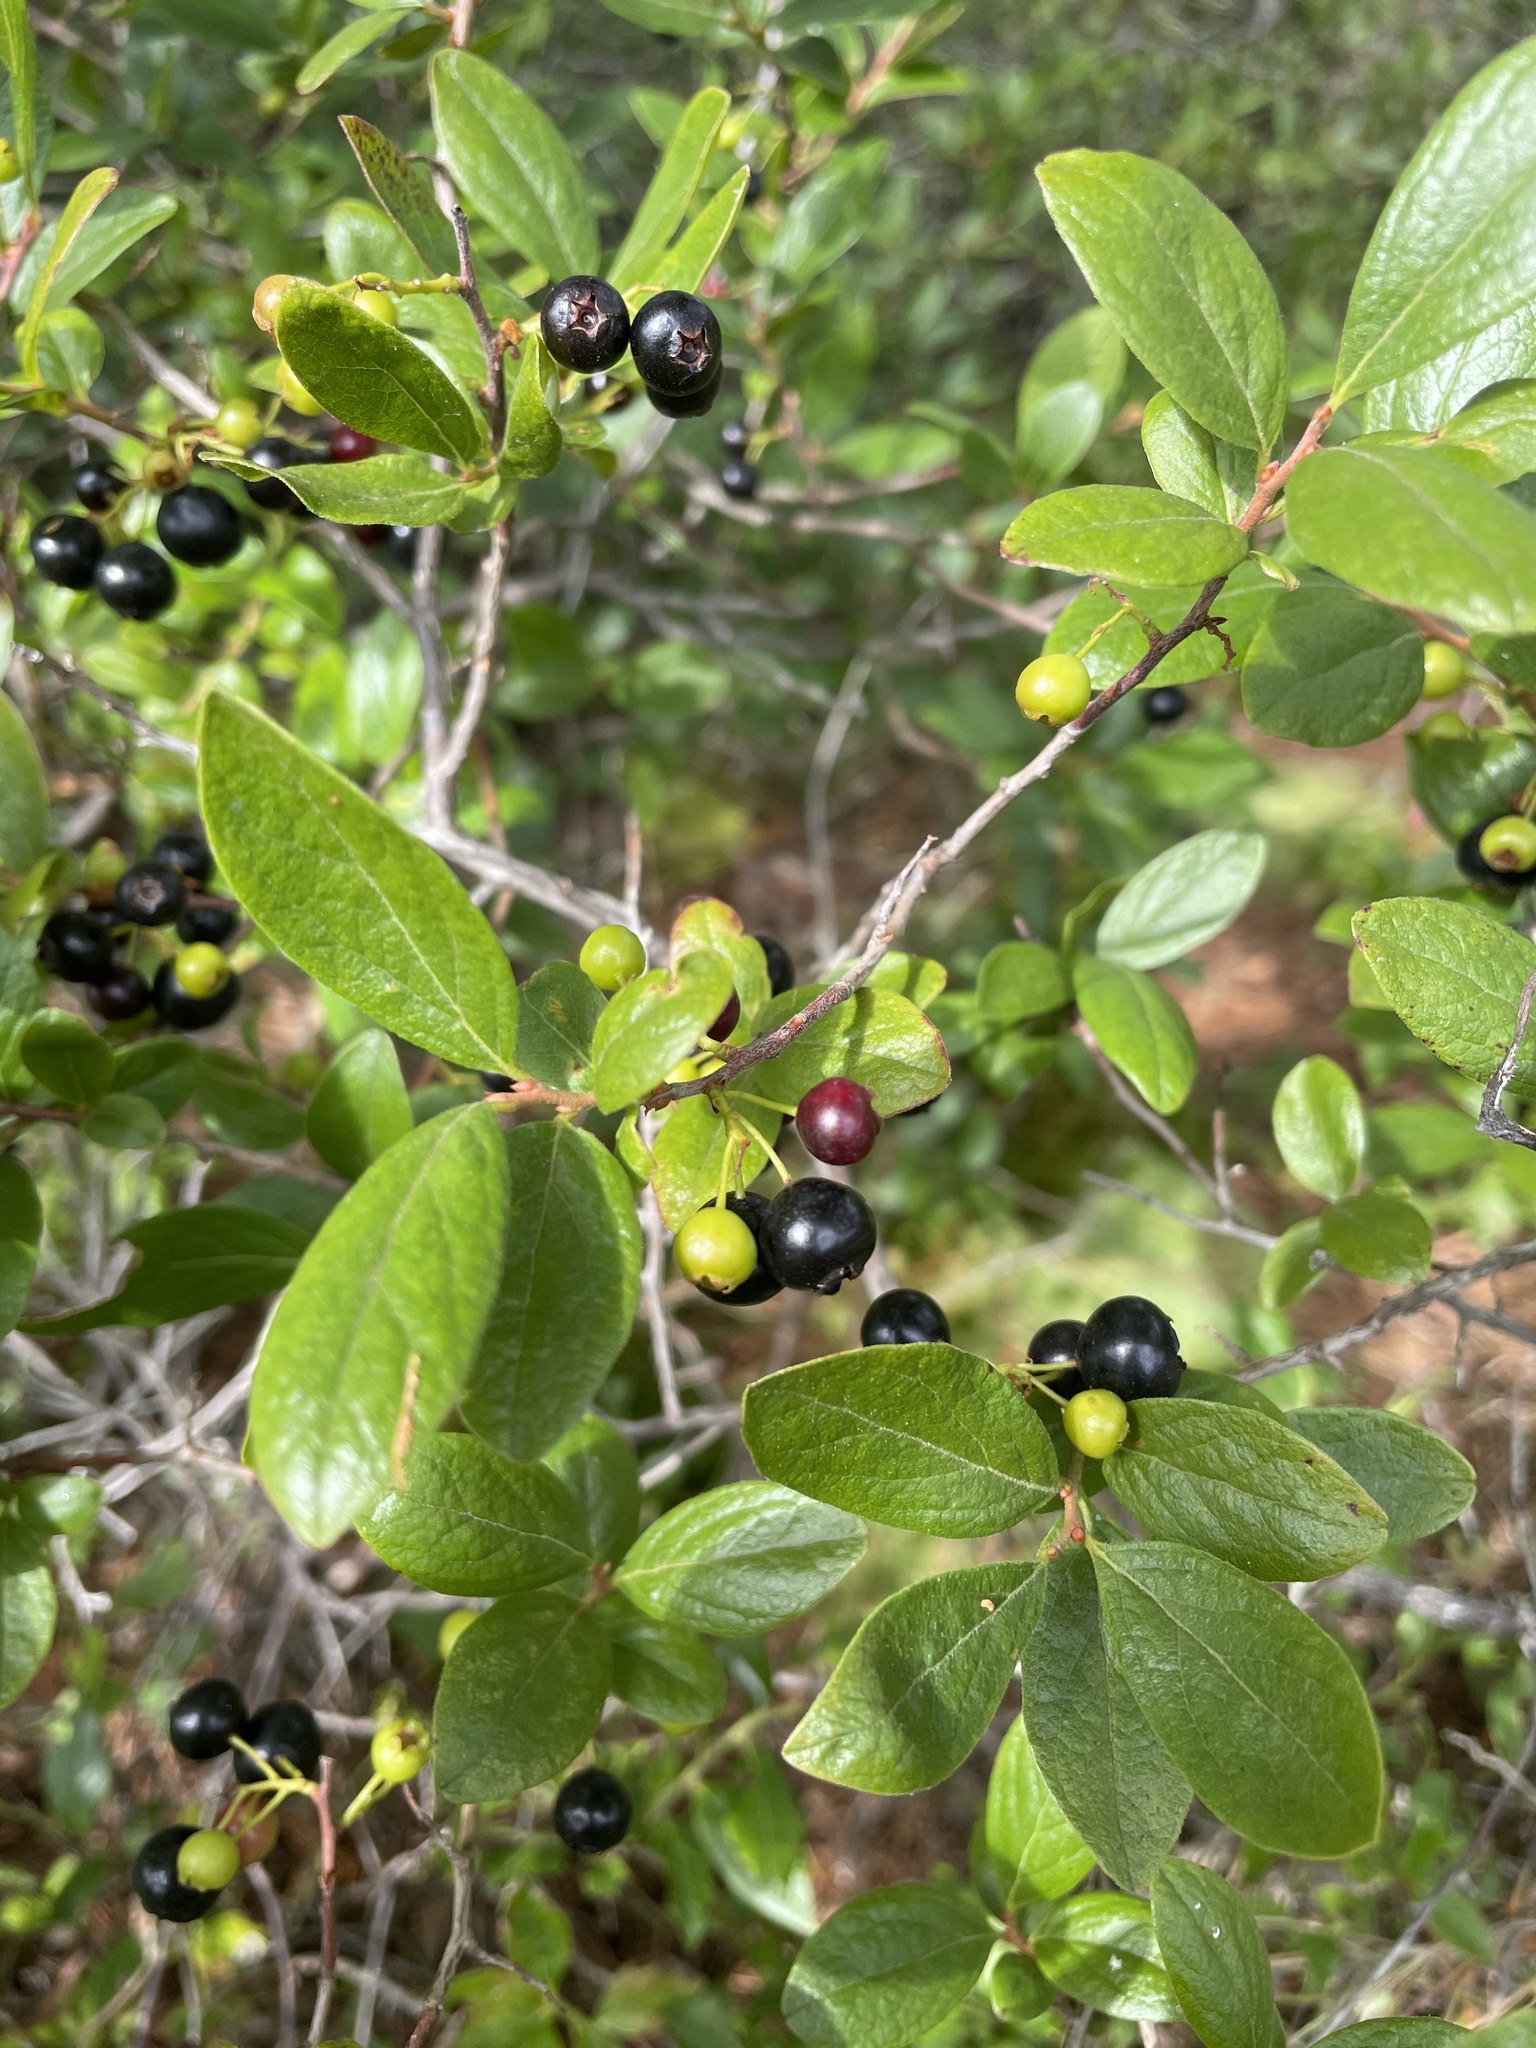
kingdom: Plantae
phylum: Tracheophyta
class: Magnoliopsida
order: Ericales
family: Ericaceae
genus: Gaylussacia
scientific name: Gaylussacia baccata
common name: Black huckleberry
